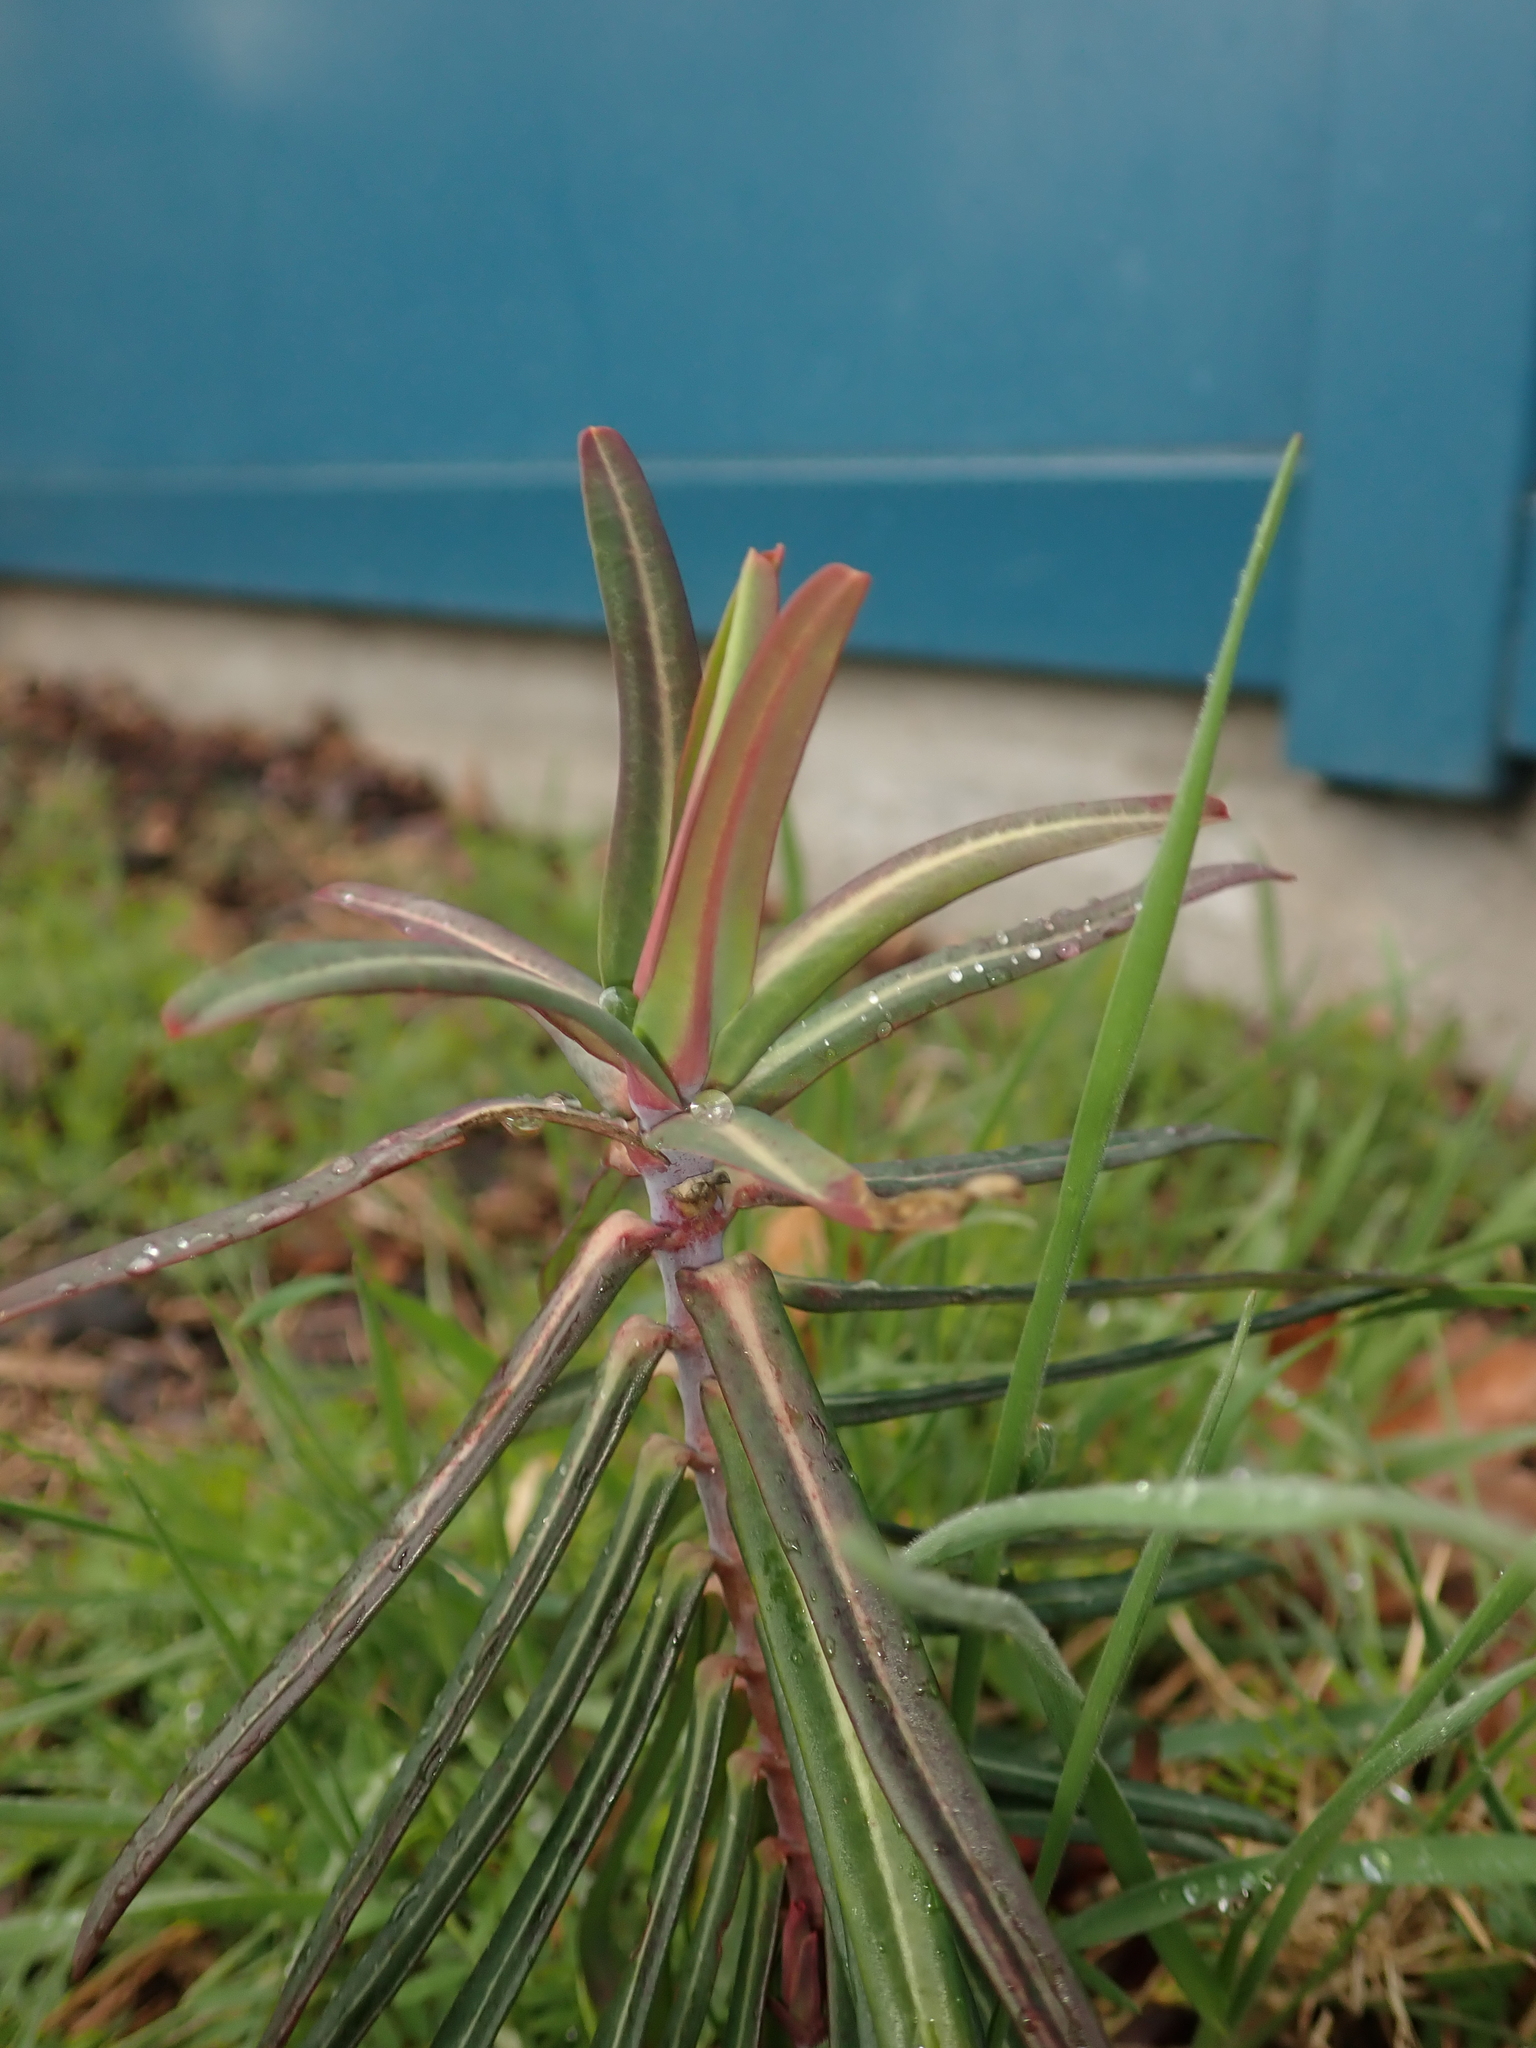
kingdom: Plantae
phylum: Tracheophyta
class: Magnoliopsida
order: Malpighiales
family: Euphorbiaceae
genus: Euphorbia
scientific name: Euphorbia lathyris
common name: Caper spurge
